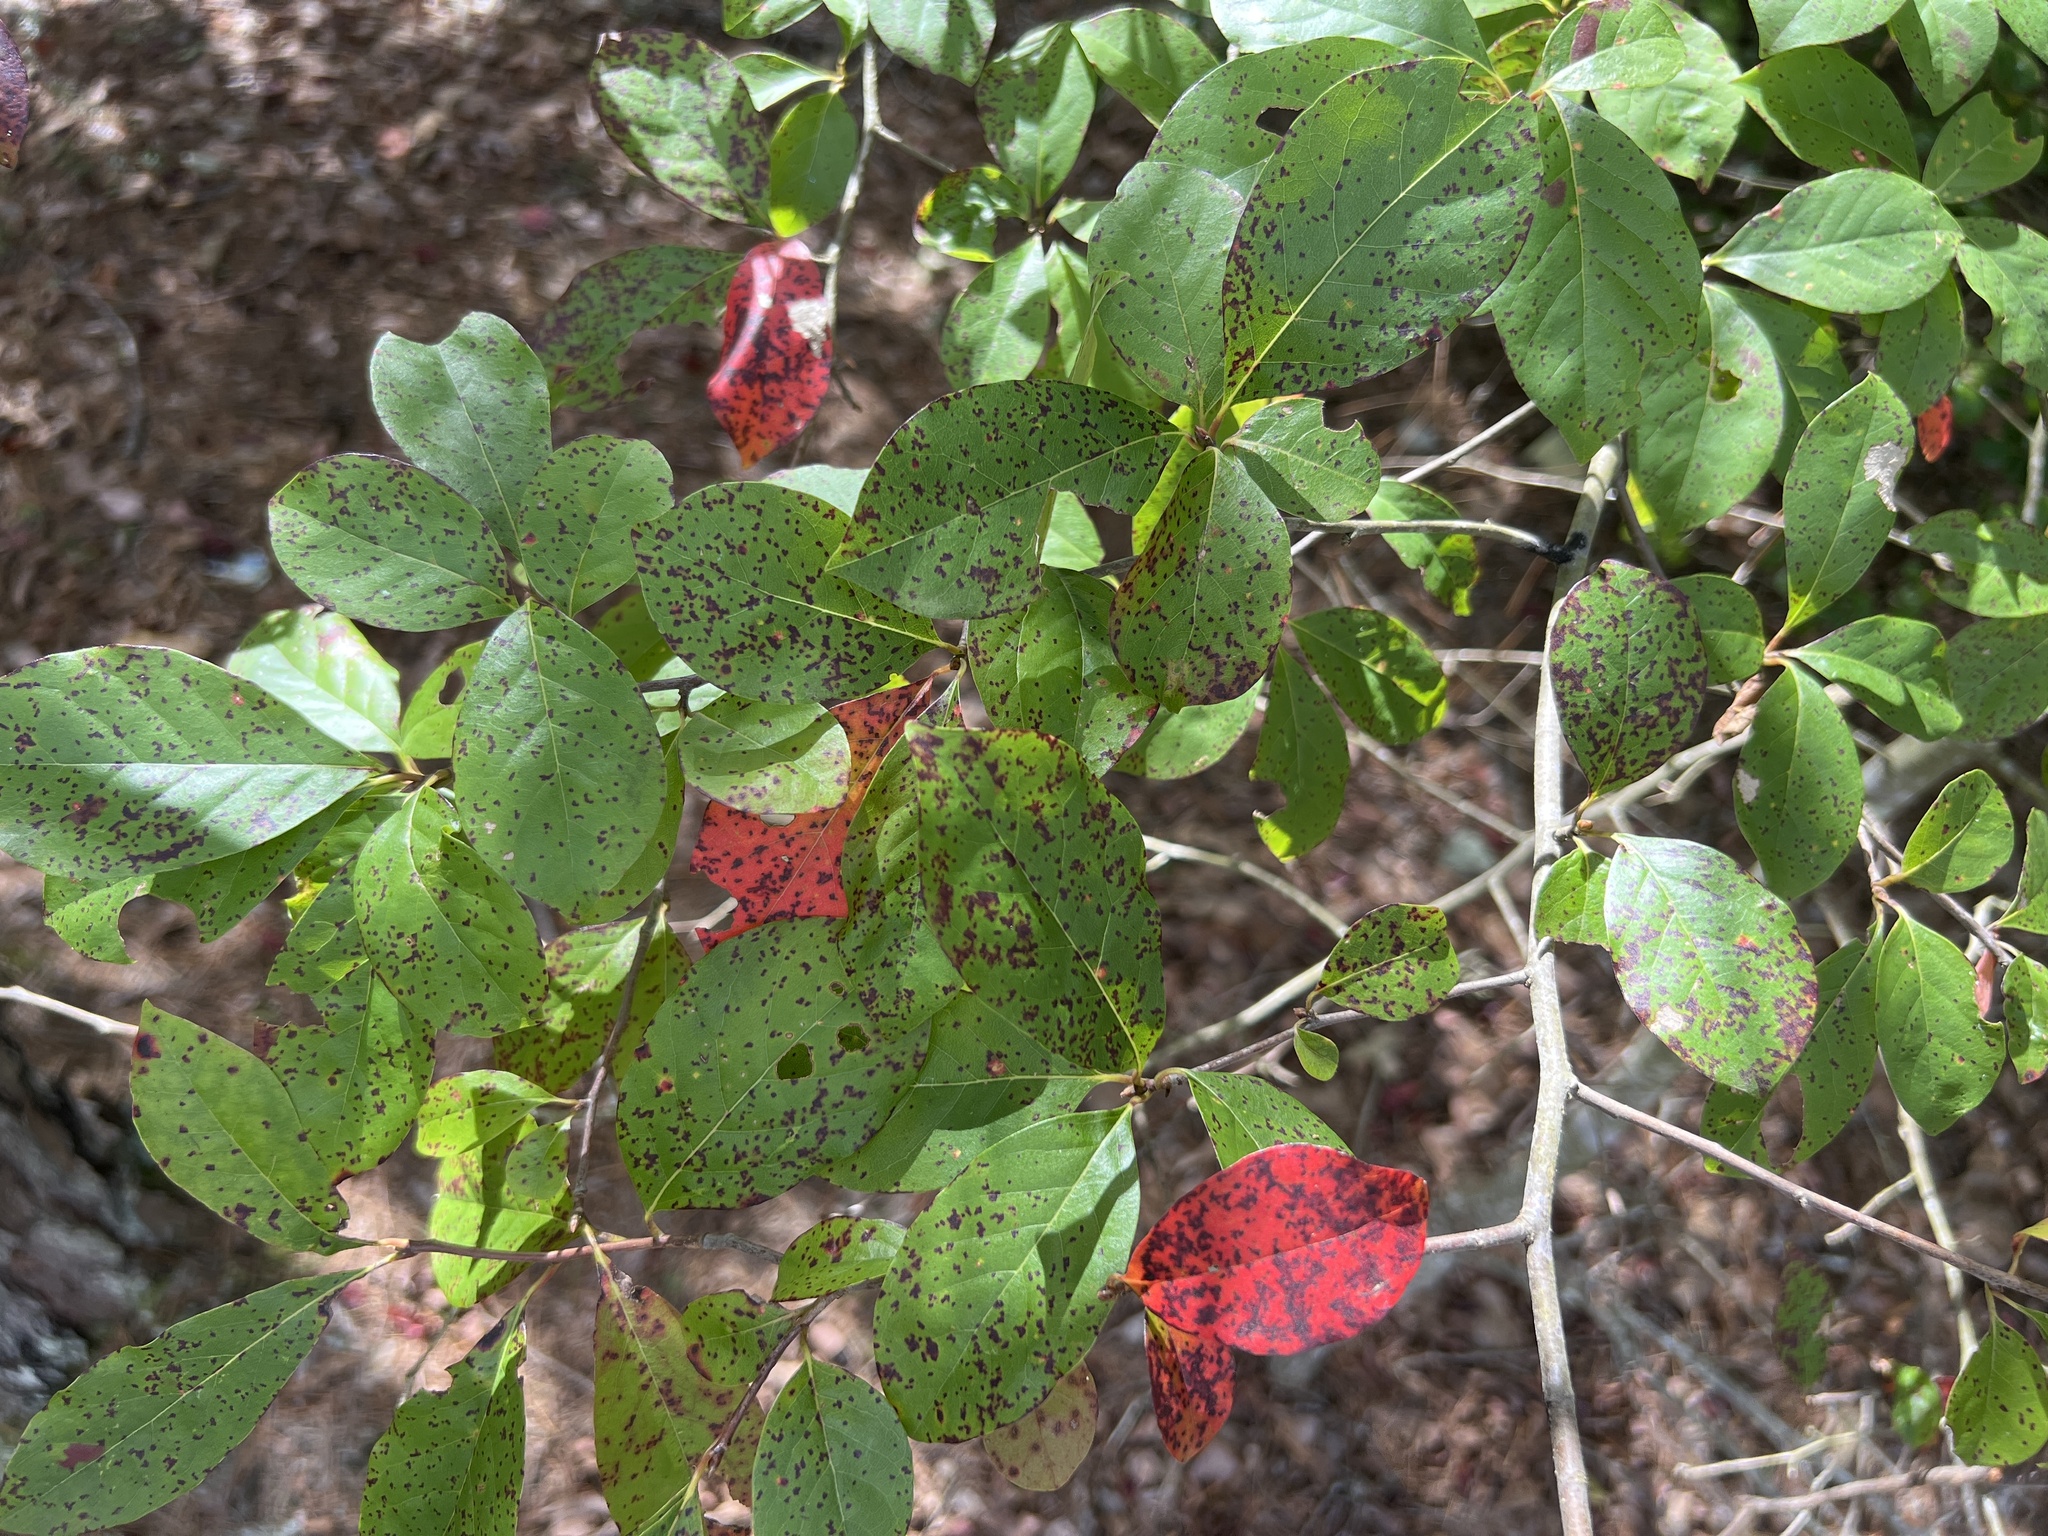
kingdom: Plantae
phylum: Tracheophyta
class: Magnoliopsida
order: Cornales
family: Nyssaceae
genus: Nyssa
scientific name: Nyssa sylvatica
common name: Black tupelo
